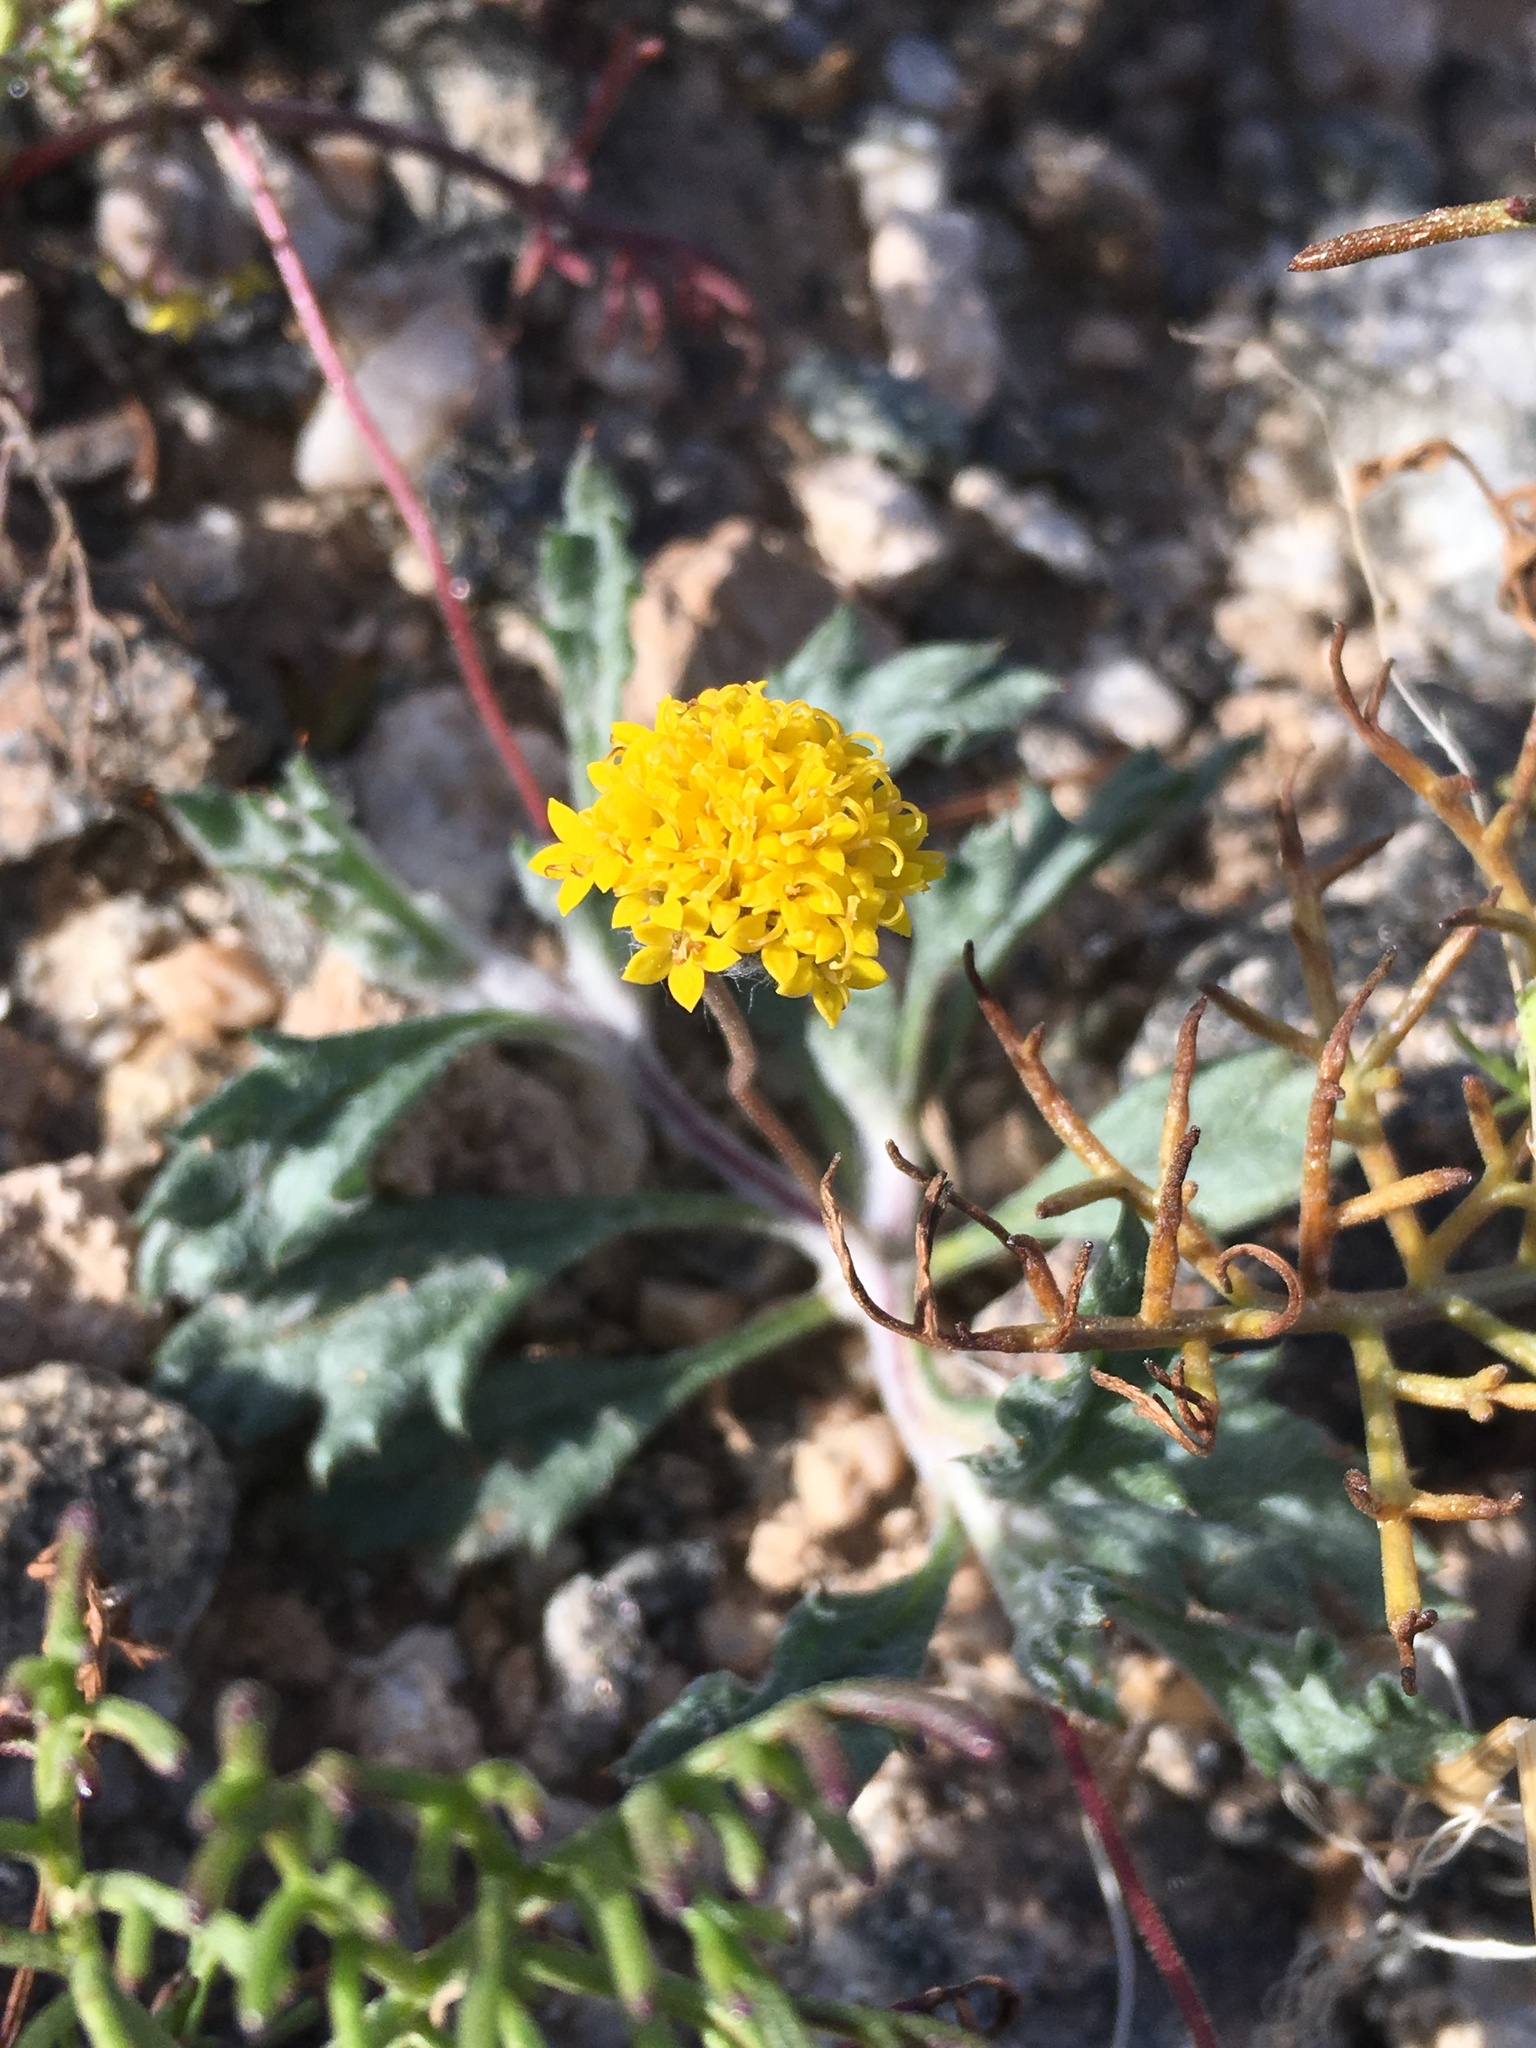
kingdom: Plantae
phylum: Tracheophyta
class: Magnoliopsida
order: Asterales
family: Asteraceae
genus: Trichoptilium
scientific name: Trichoptilium incisum
